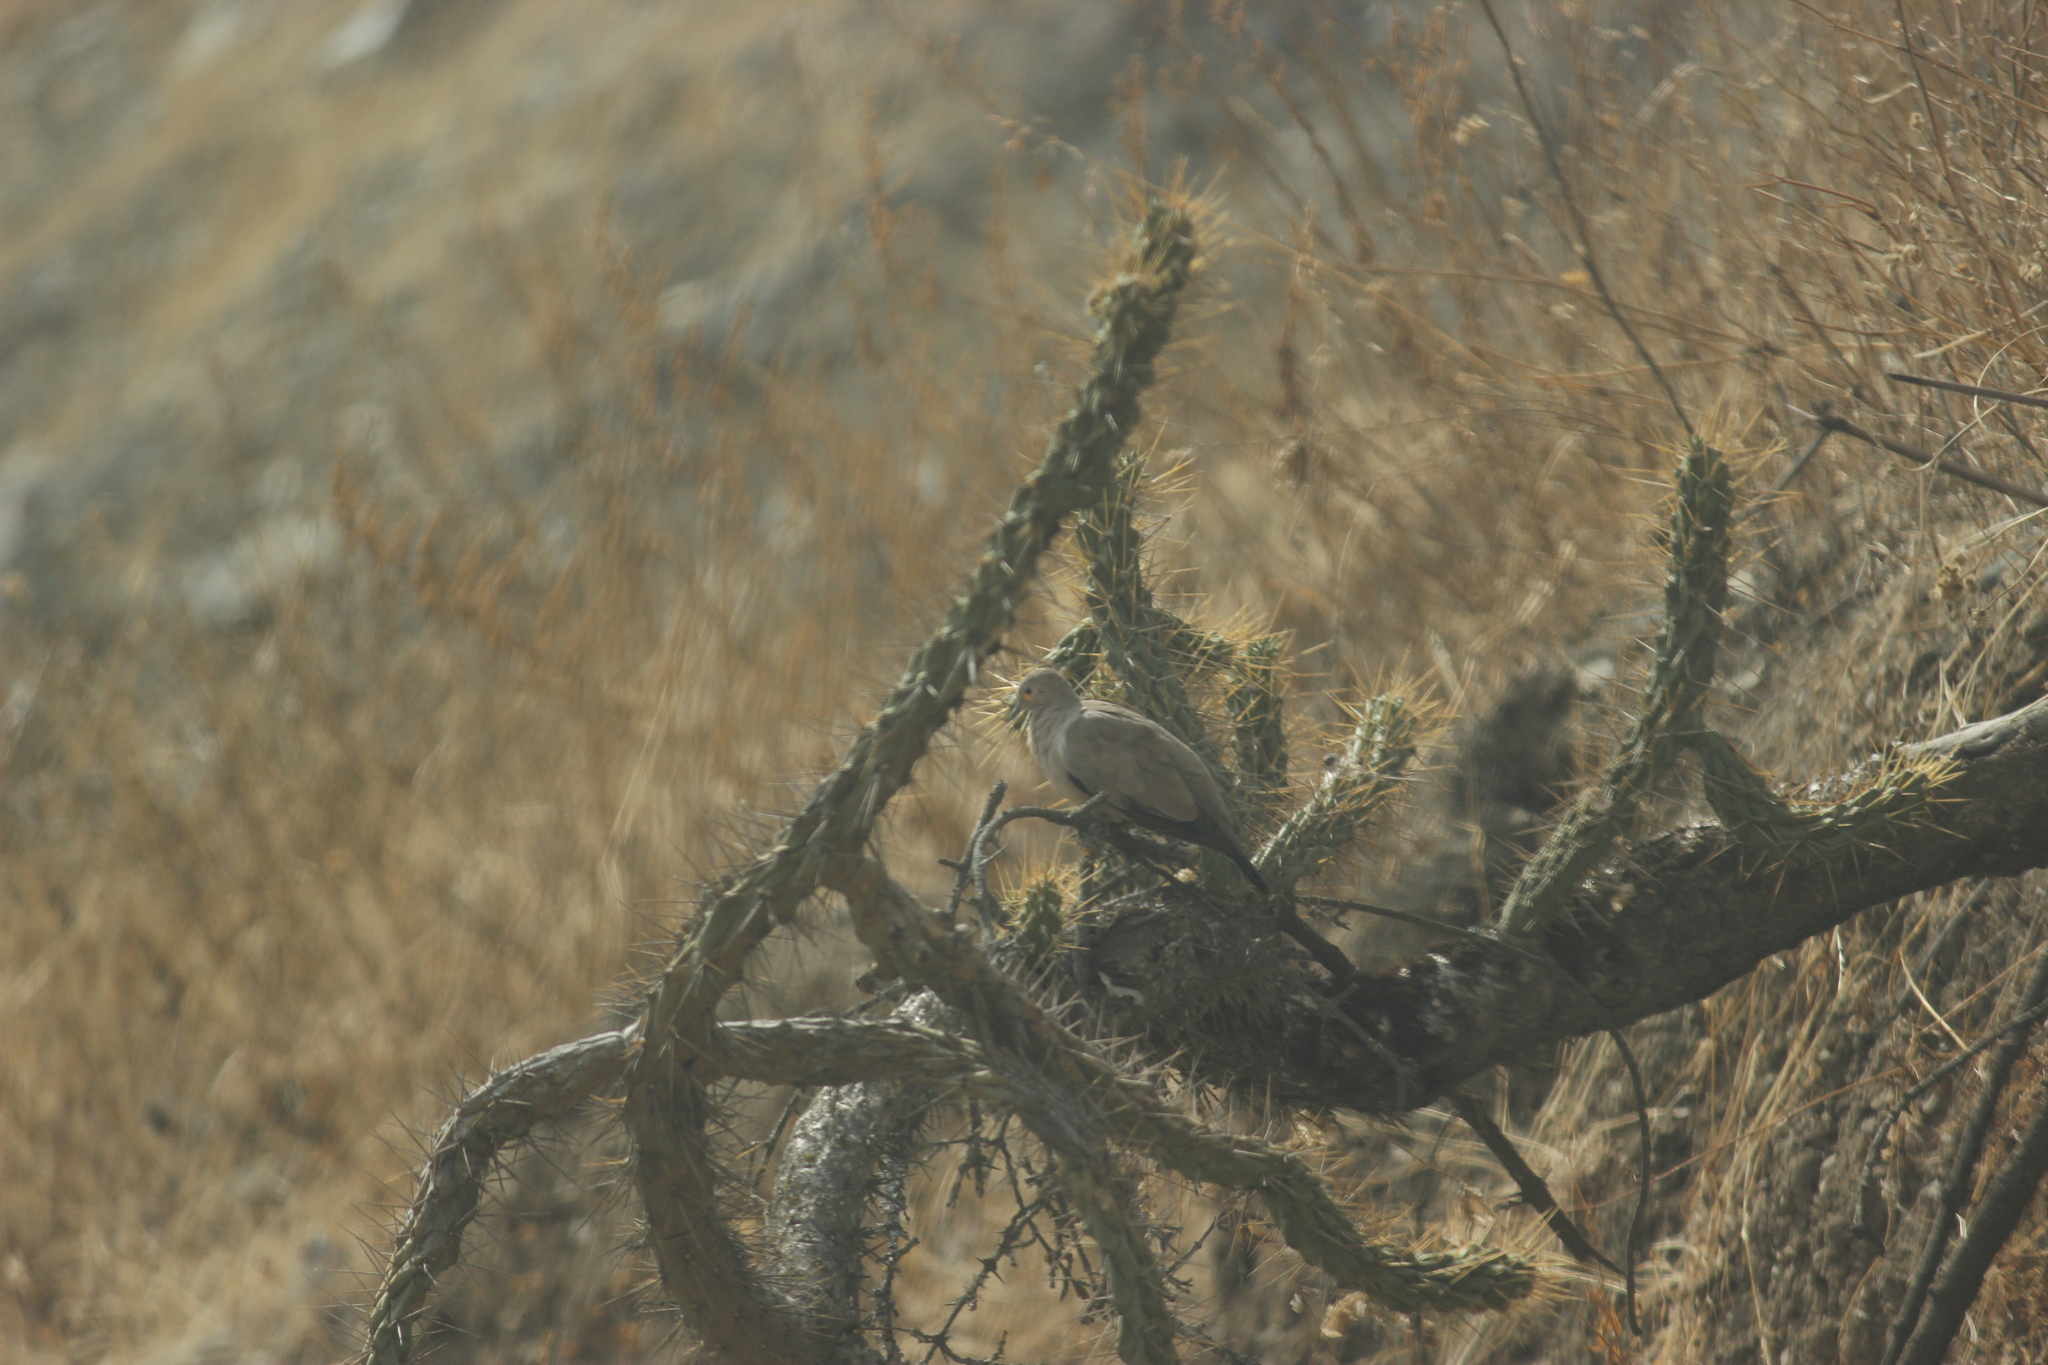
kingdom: Animalia
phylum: Chordata
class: Aves
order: Columbiformes
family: Columbidae
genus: Metriopelia
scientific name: Metriopelia melanoptera
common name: Black-winged ground dove
